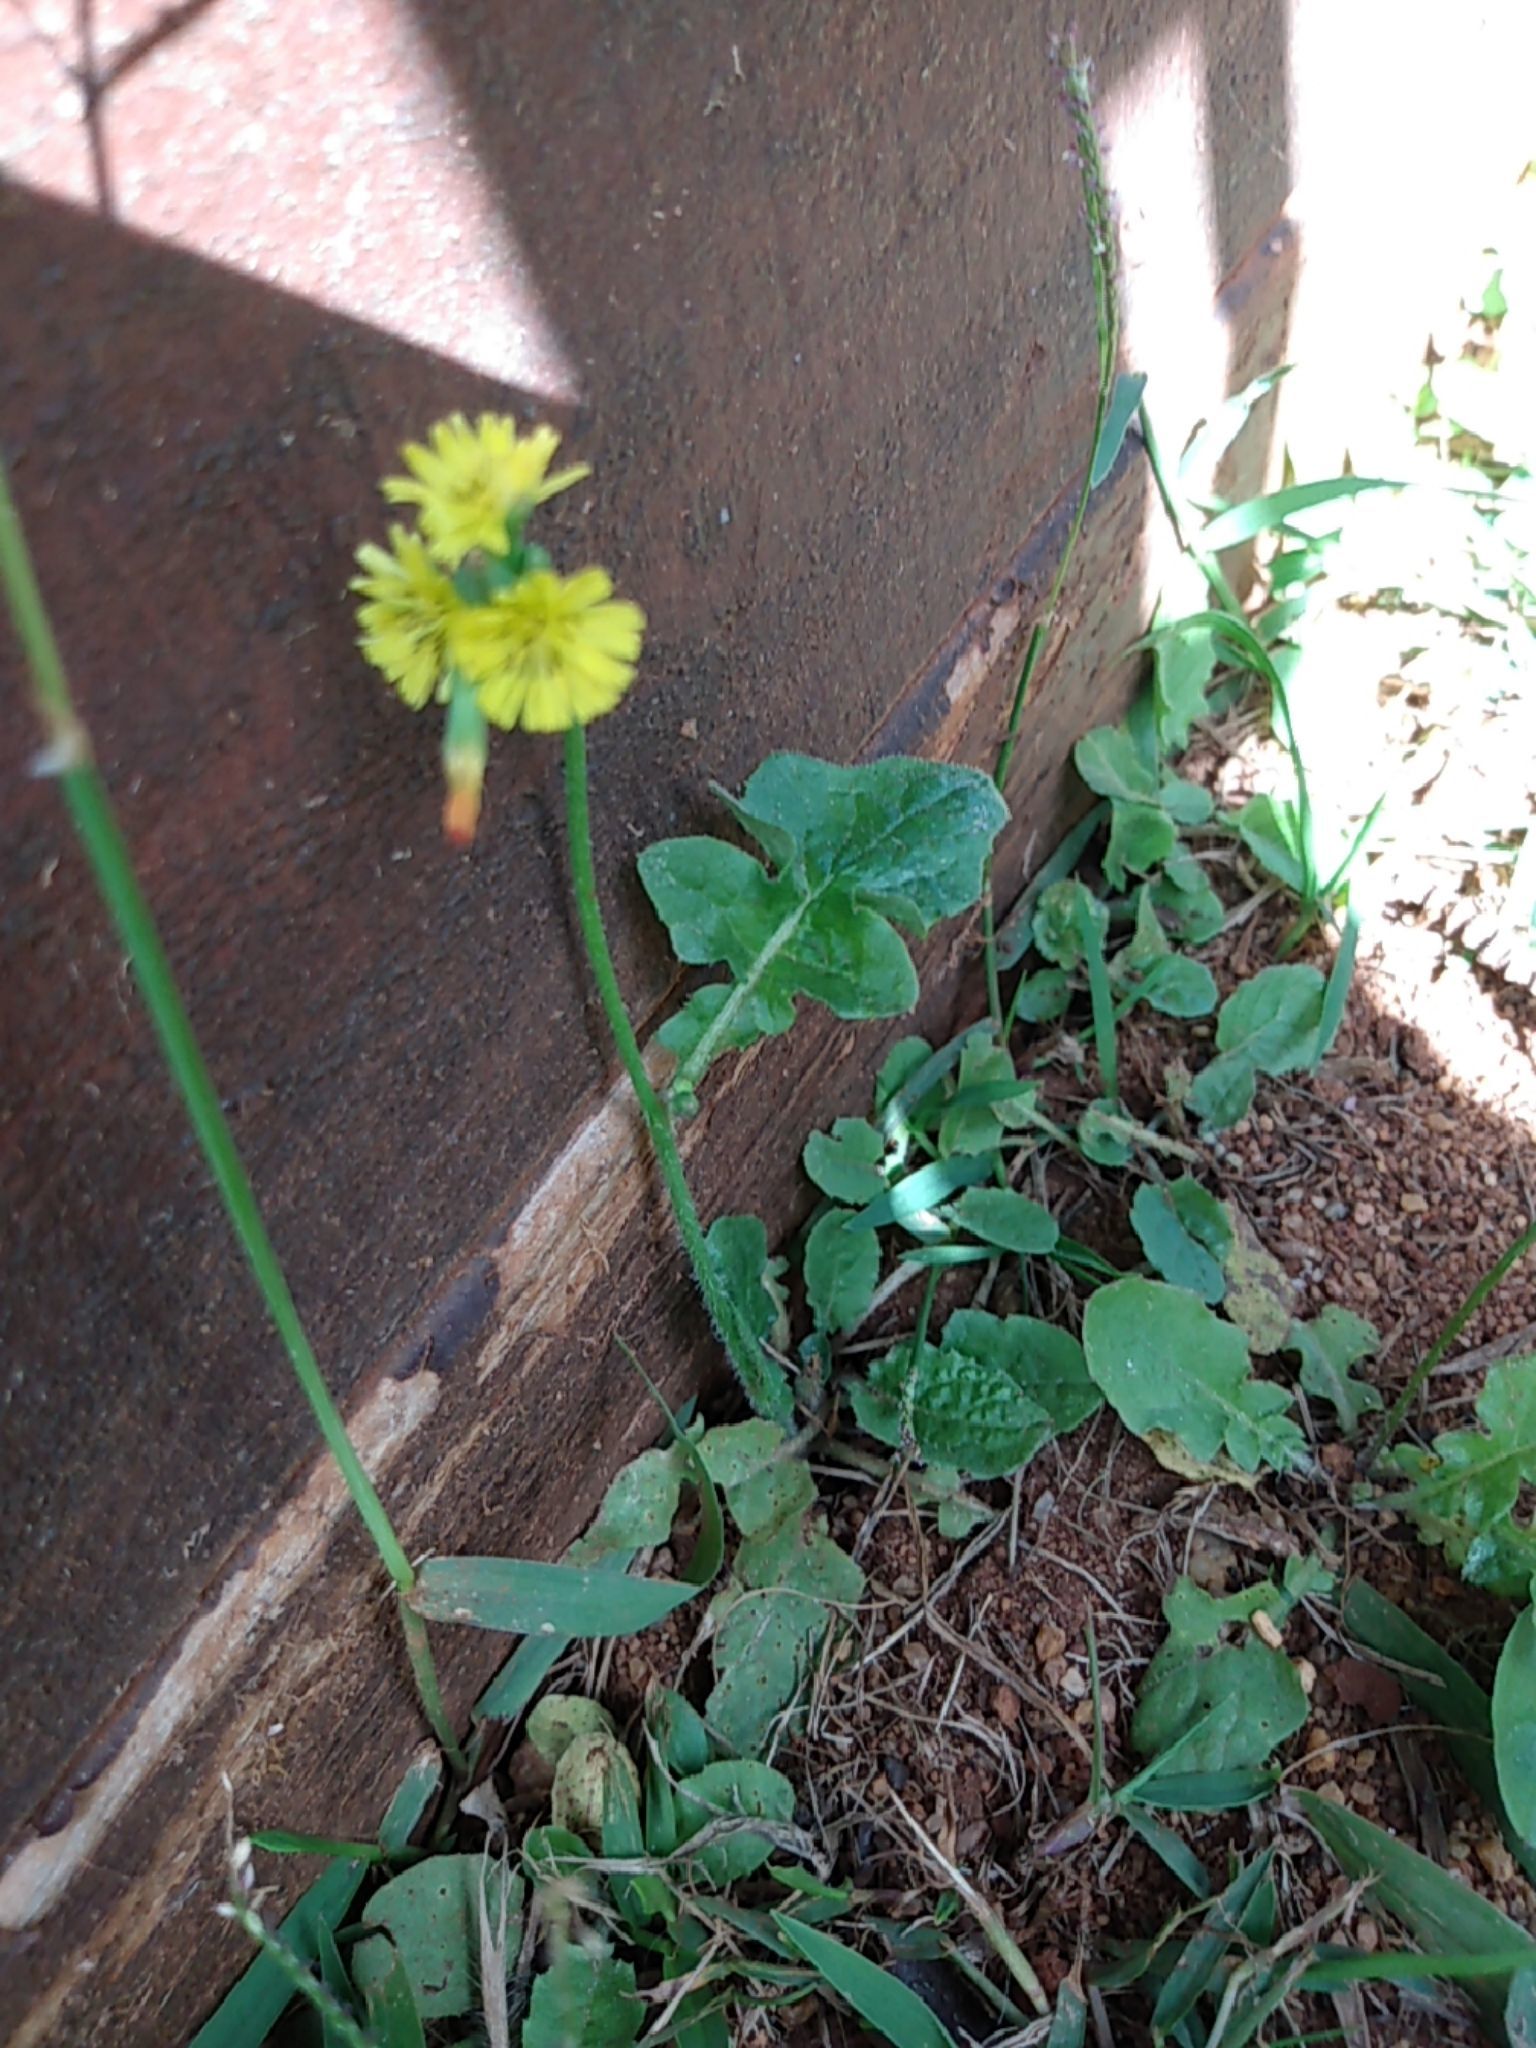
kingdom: Plantae
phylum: Tracheophyta
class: Magnoliopsida
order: Asterales
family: Asteraceae
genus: Youngia
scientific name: Youngia japonica
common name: Oriental false hawksbeard
